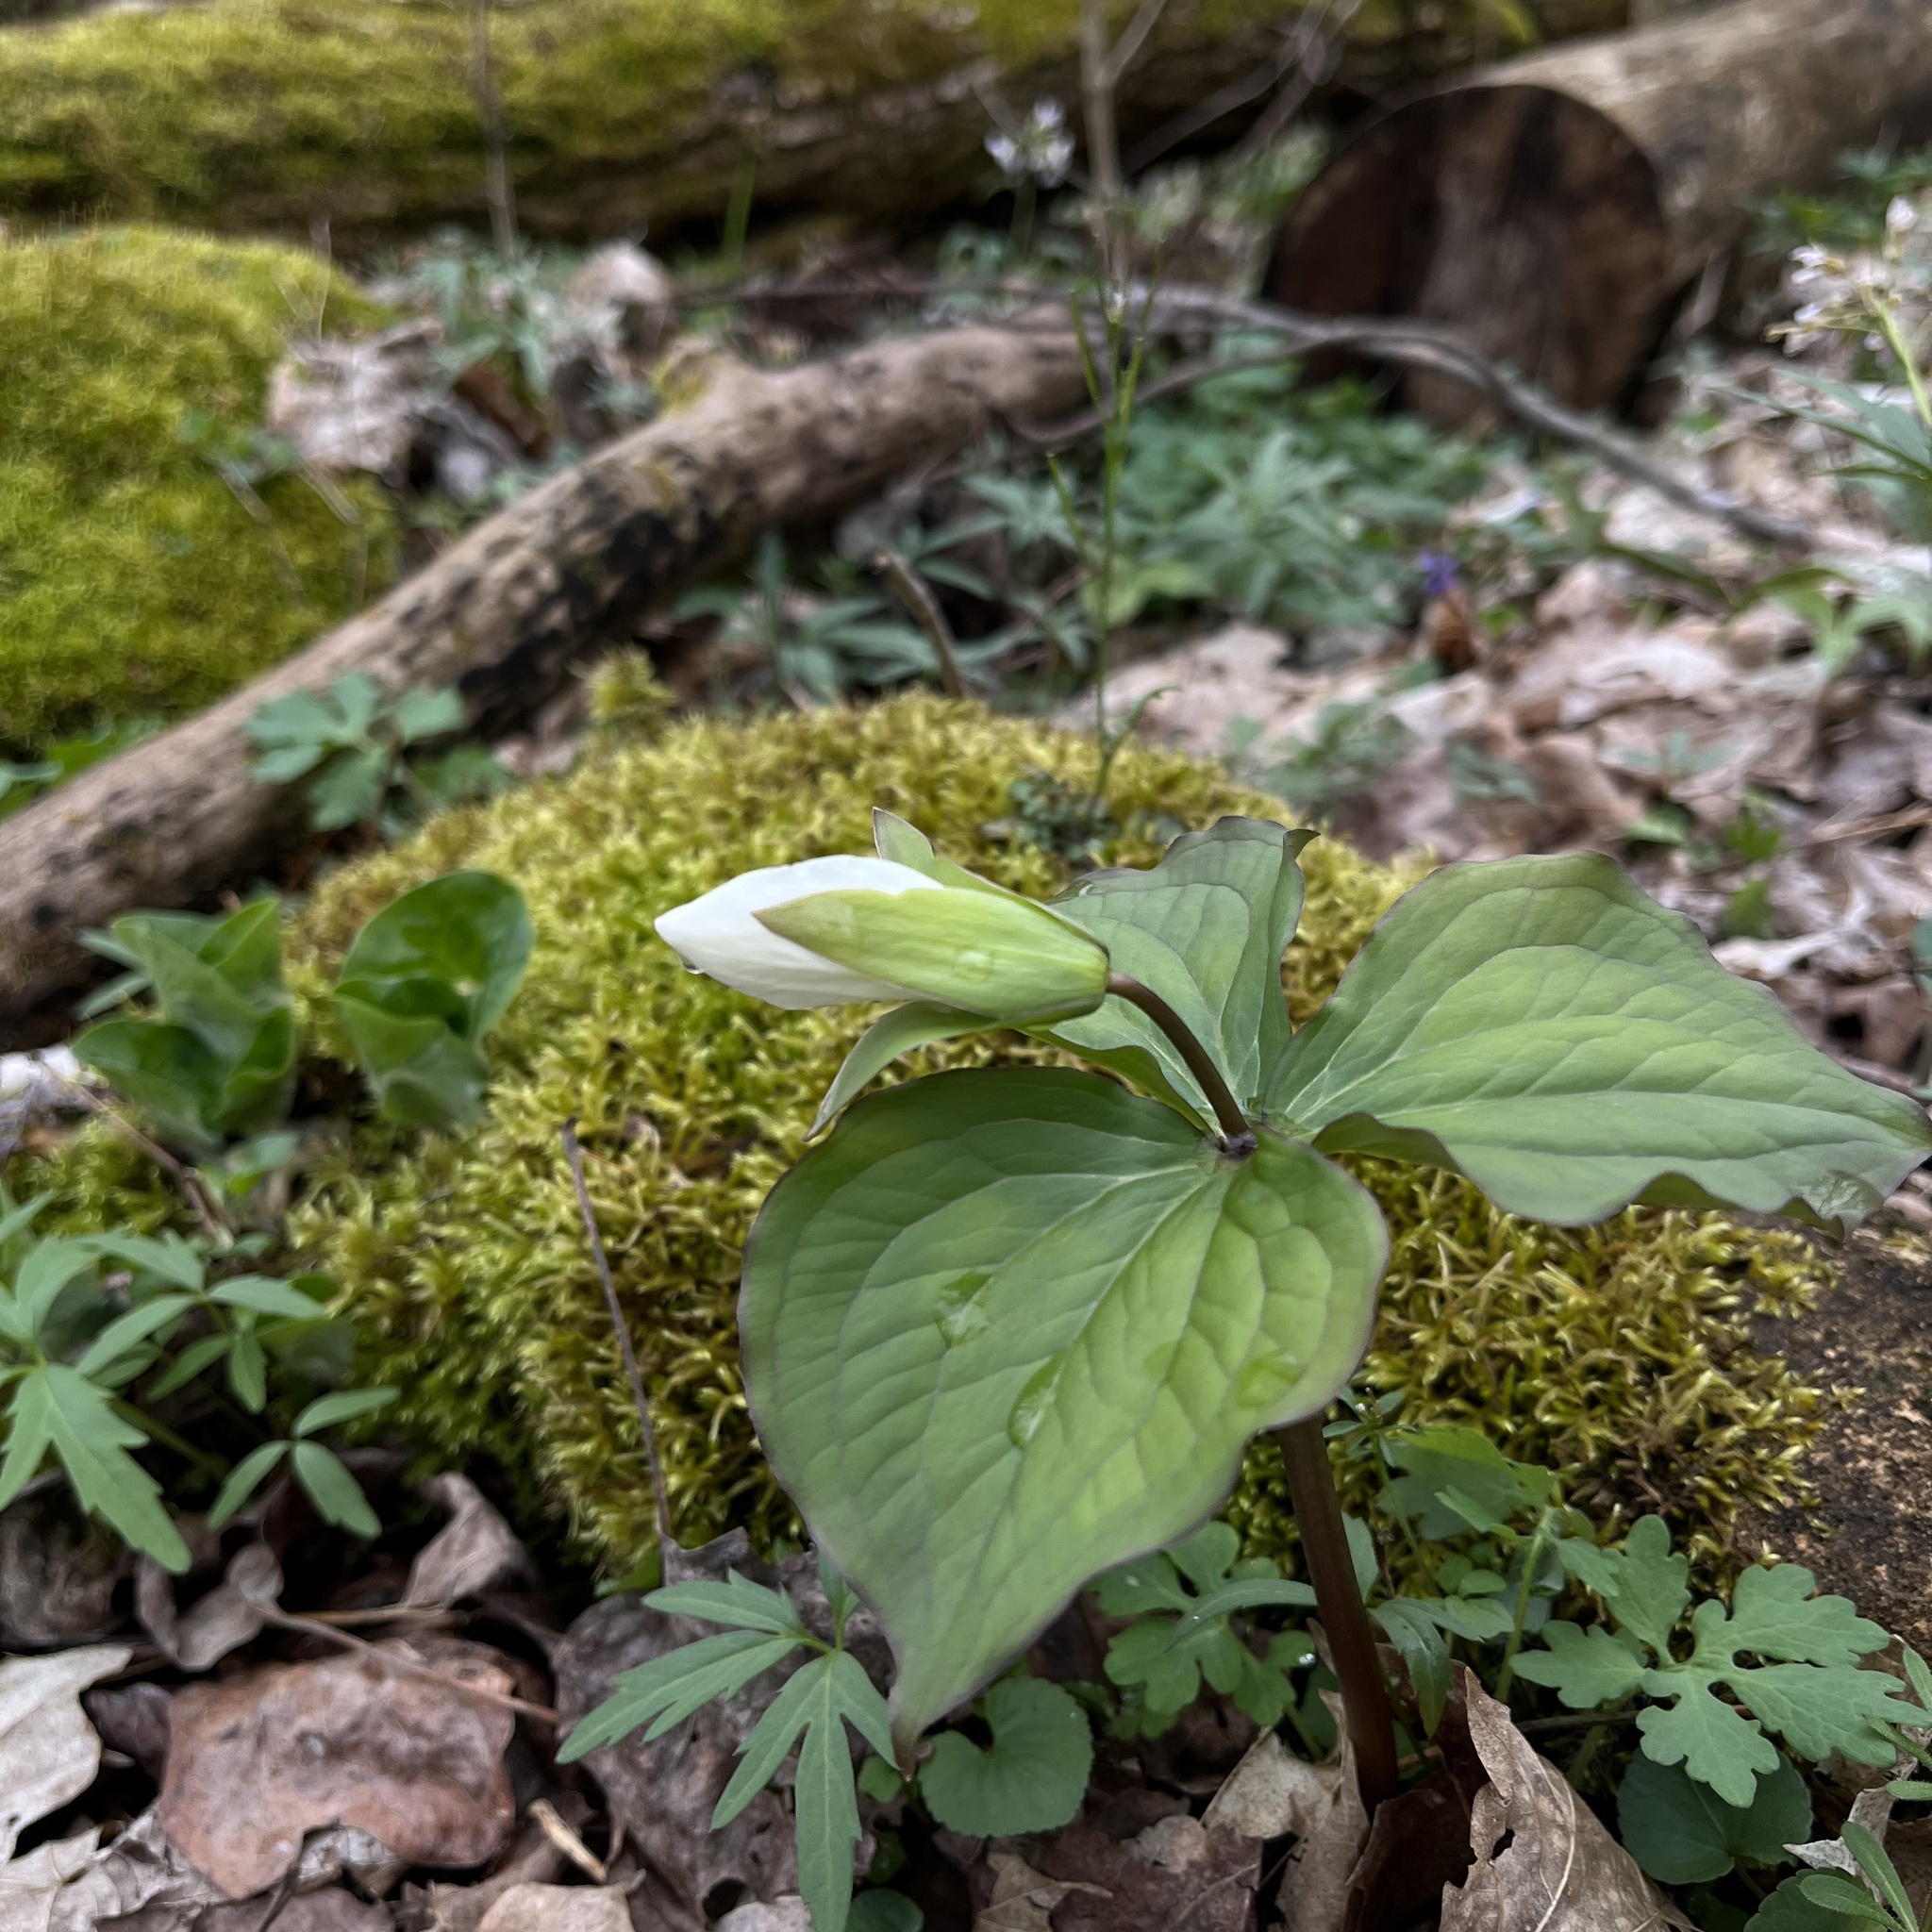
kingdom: Plantae
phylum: Tracheophyta
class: Liliopsida
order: Liliales
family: Melanthiaceae
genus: Trillium
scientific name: Trillium grandiflorum
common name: Great white trillium
